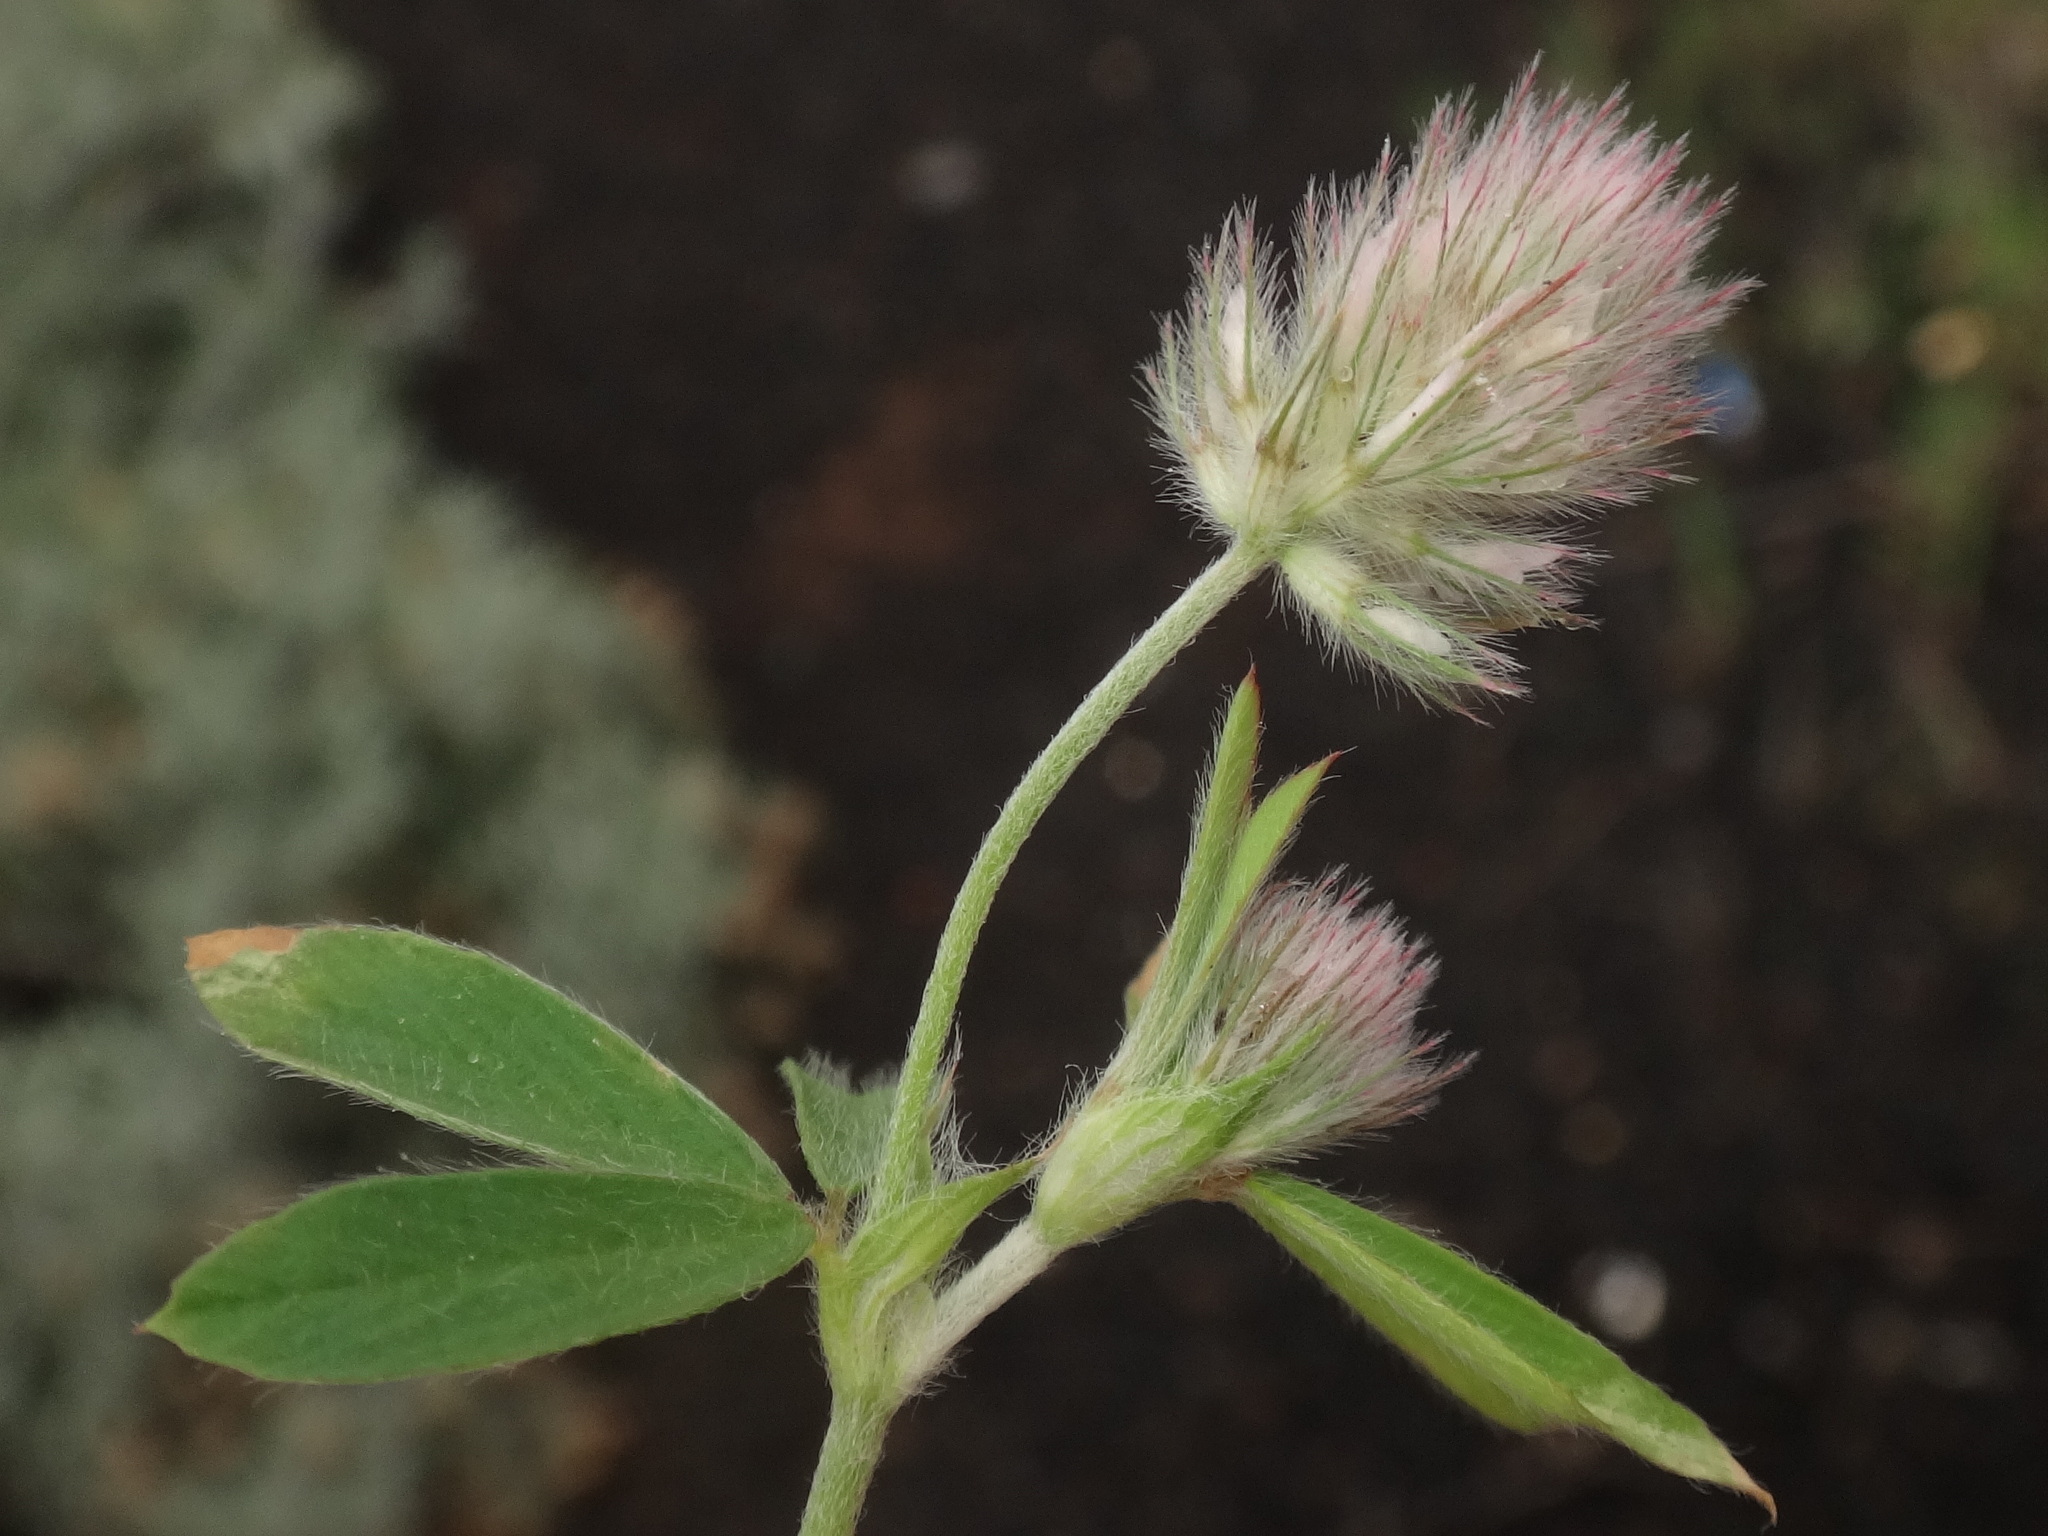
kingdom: Plantae
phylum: Tracheophyta
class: Magnoliopsida
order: Fabales
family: Fabaceae
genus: Trifolium
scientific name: Trifolium arvense
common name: Hare's-foot clover
